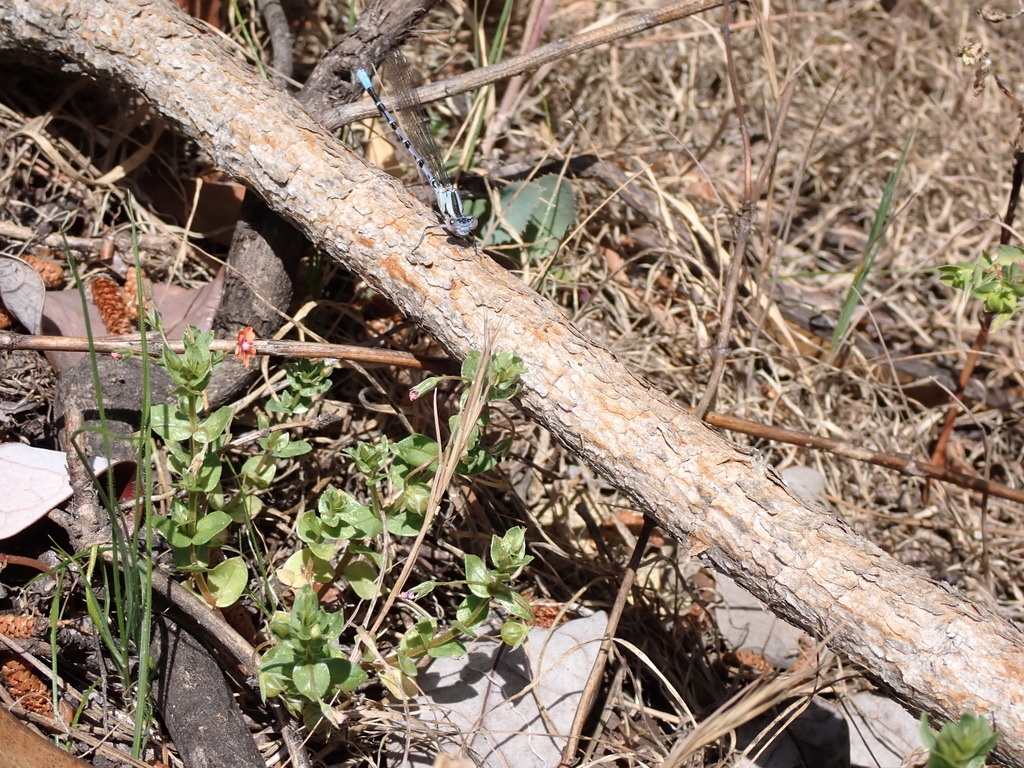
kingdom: Animalia
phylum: Arthropoda
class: Insecta
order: Odonata
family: Coenagrionidae
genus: Argia
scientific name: Argia vivida
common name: Vivid dancer
